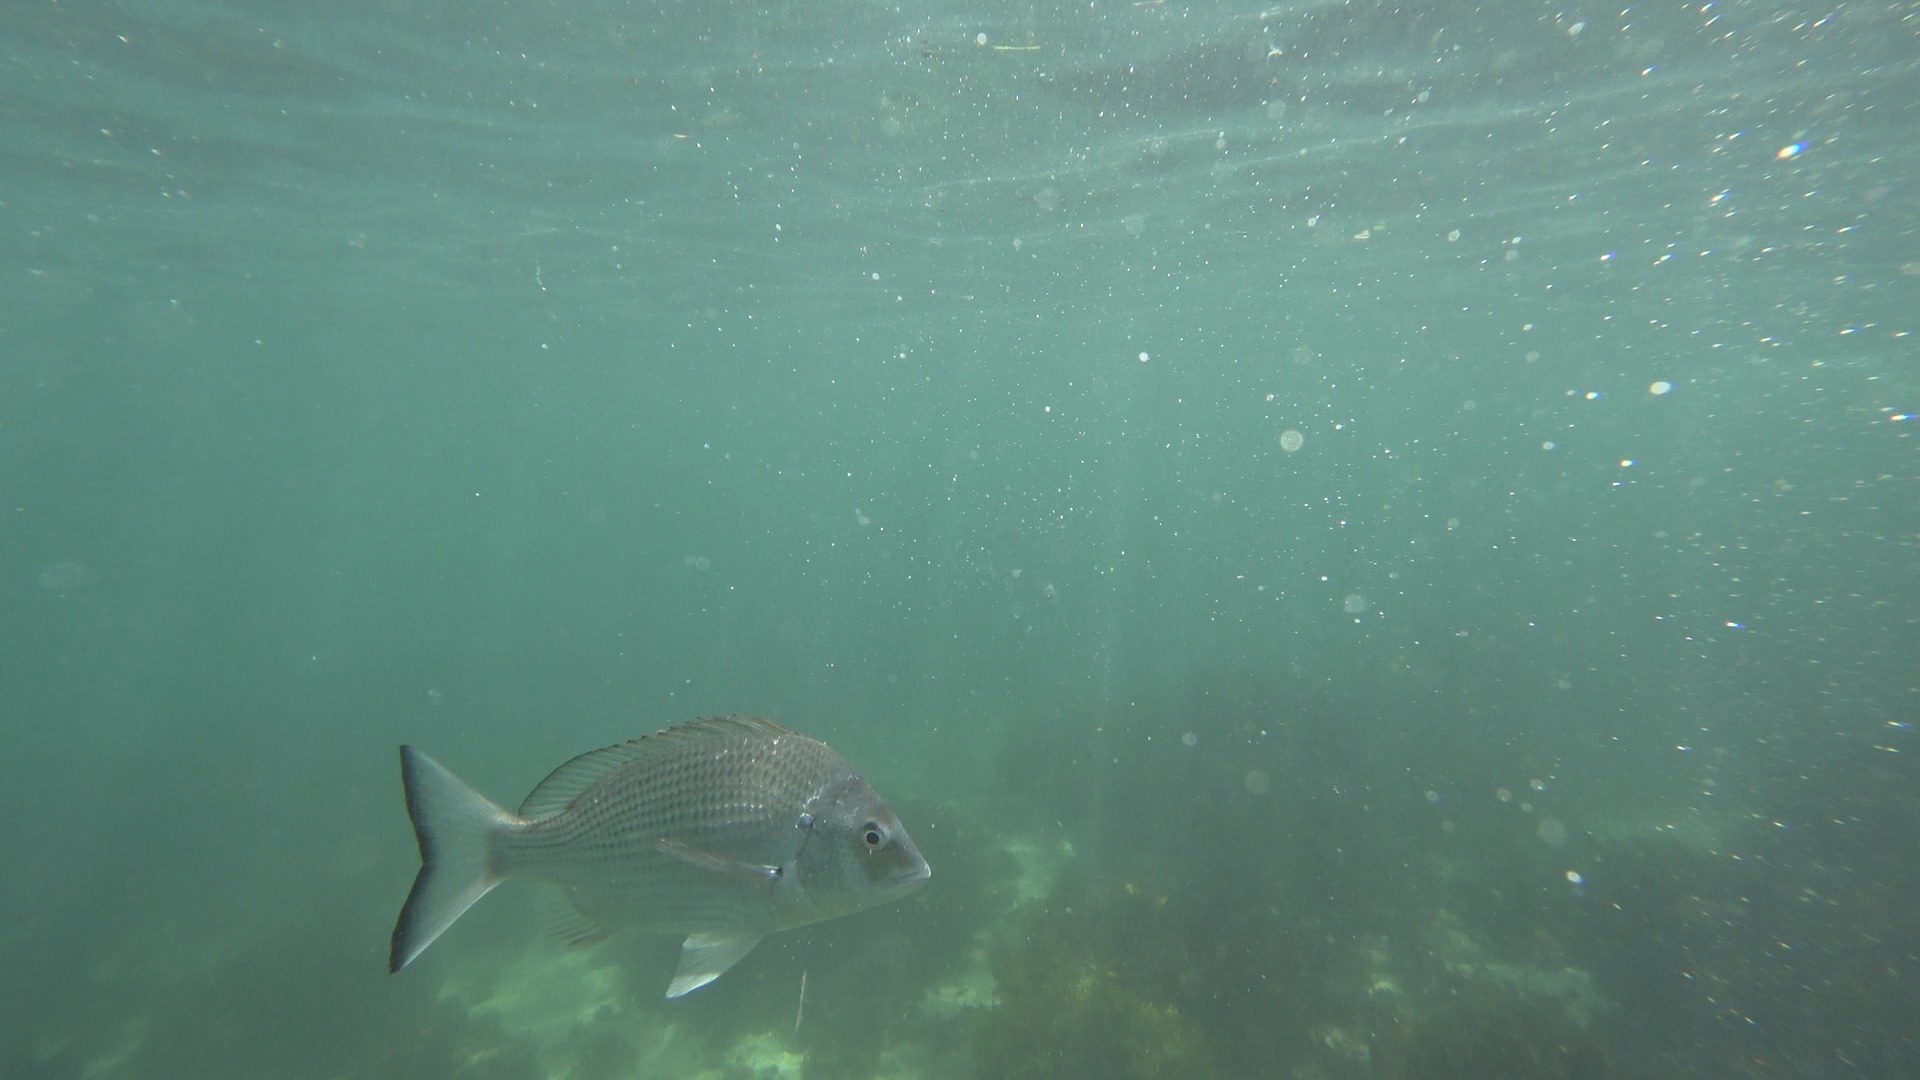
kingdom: Animalia
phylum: Chordata
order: Perciformes
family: Sparidae
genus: Acanthopagrus
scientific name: Acanthopagrus australis
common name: Surf bream
